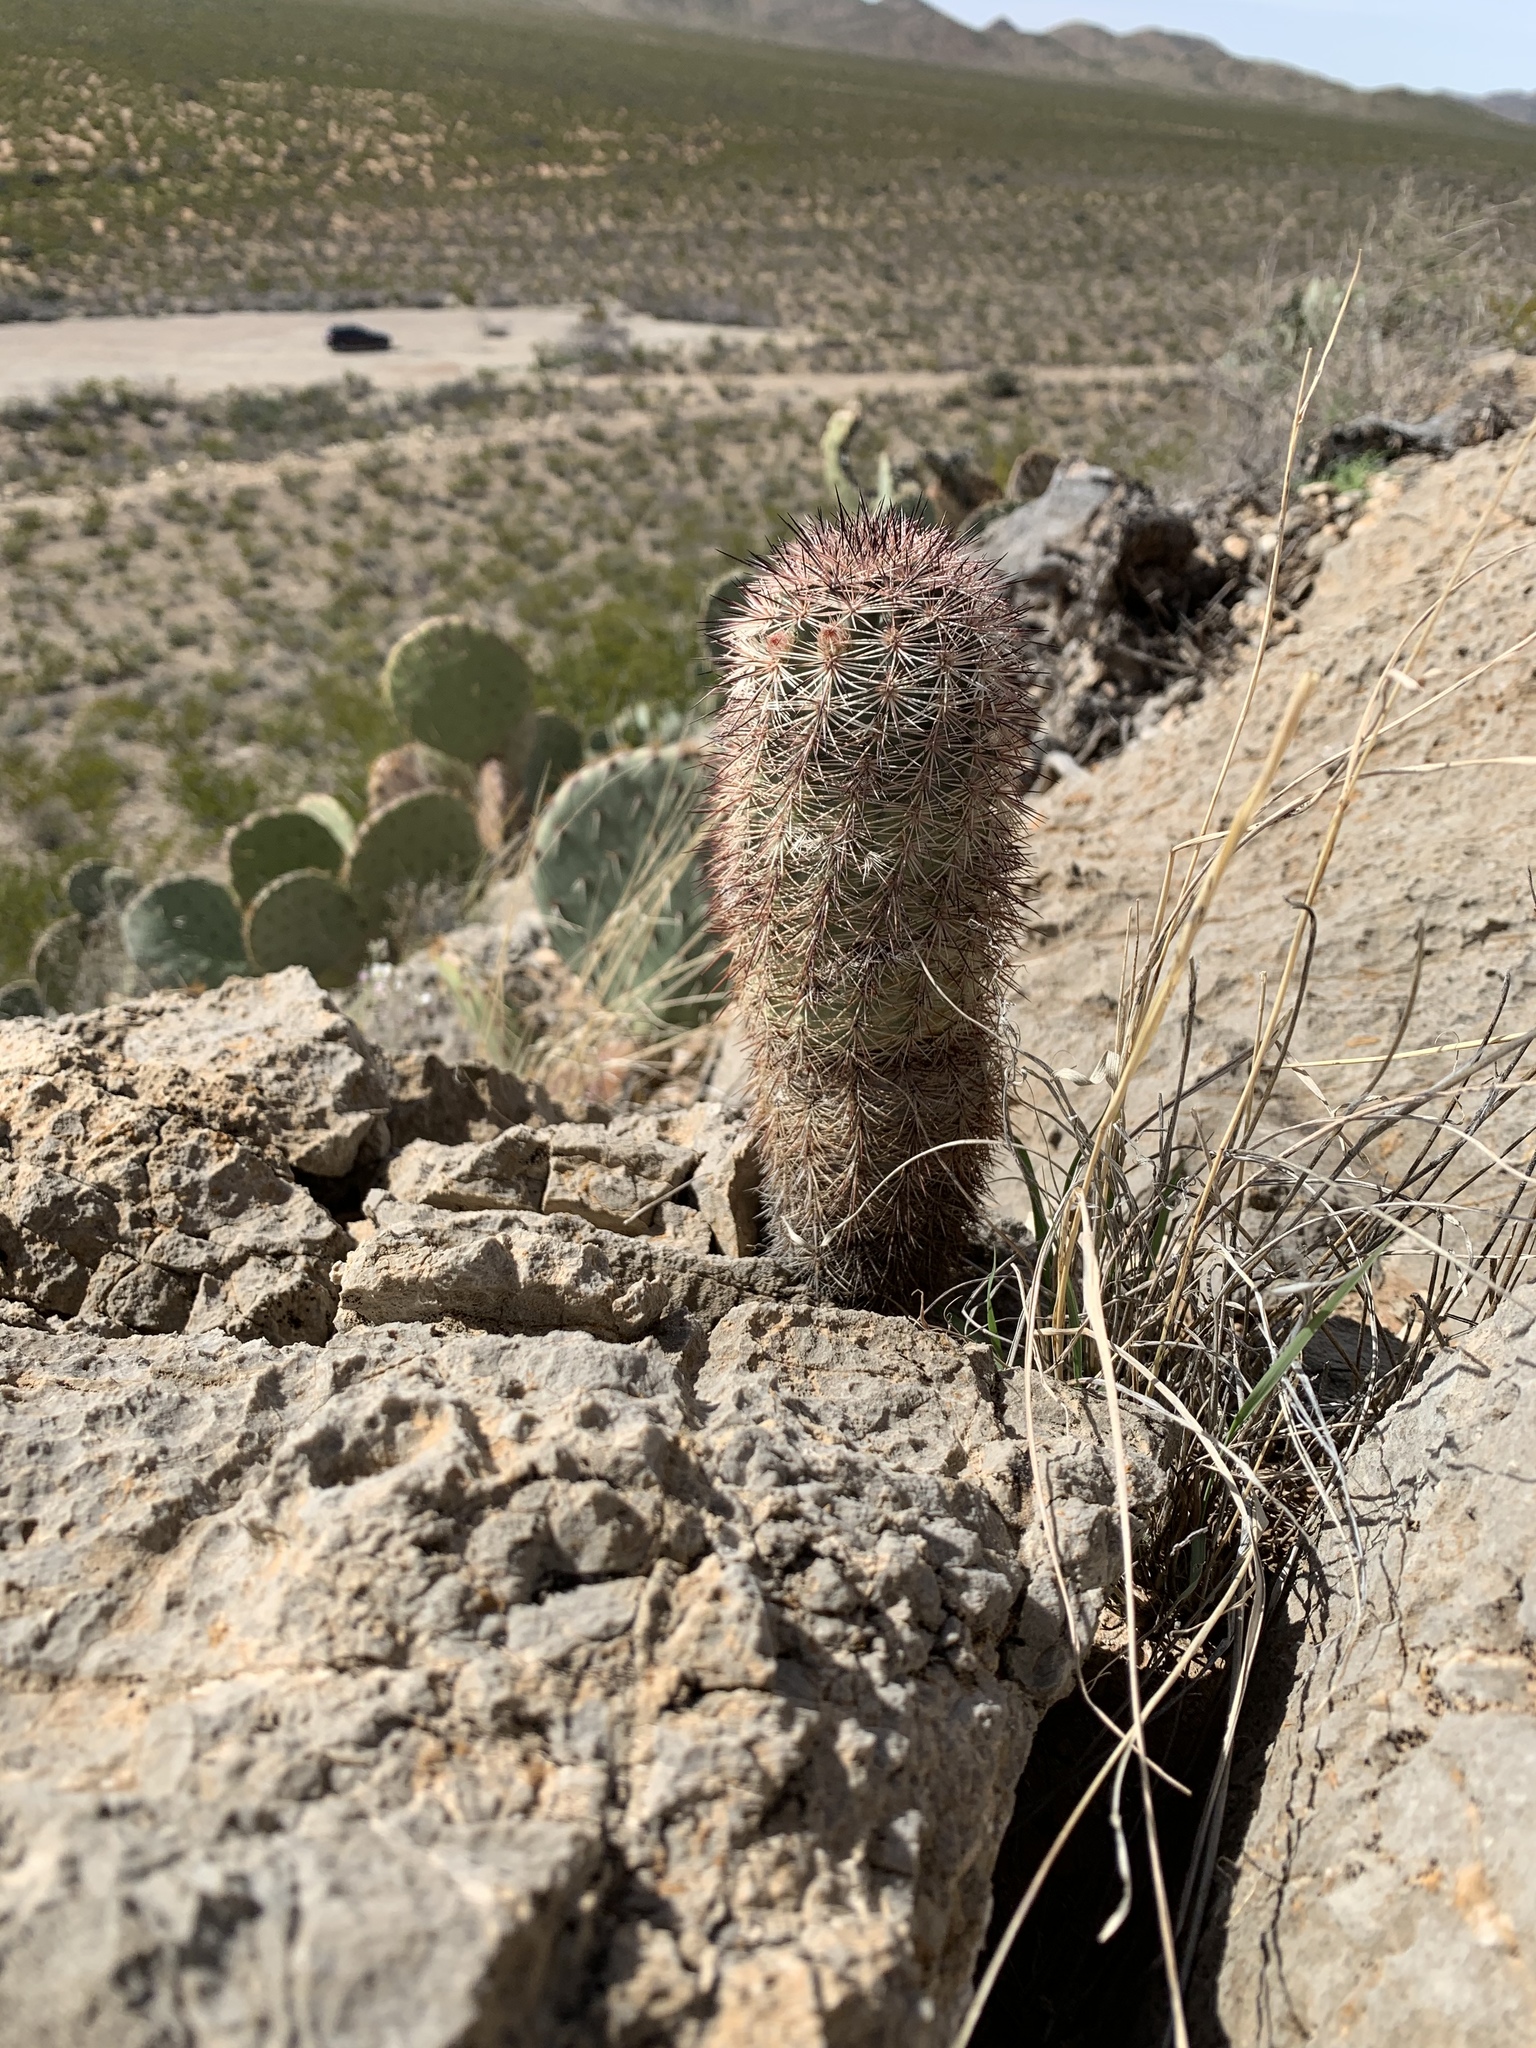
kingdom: Plantae
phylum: Tracheophyta
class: Magnoliopsida
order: Caryophyllales
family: Cactaceae
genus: Echinocereus
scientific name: Echinocereus dasyacanthus
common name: Spiny hedgehog cactus
